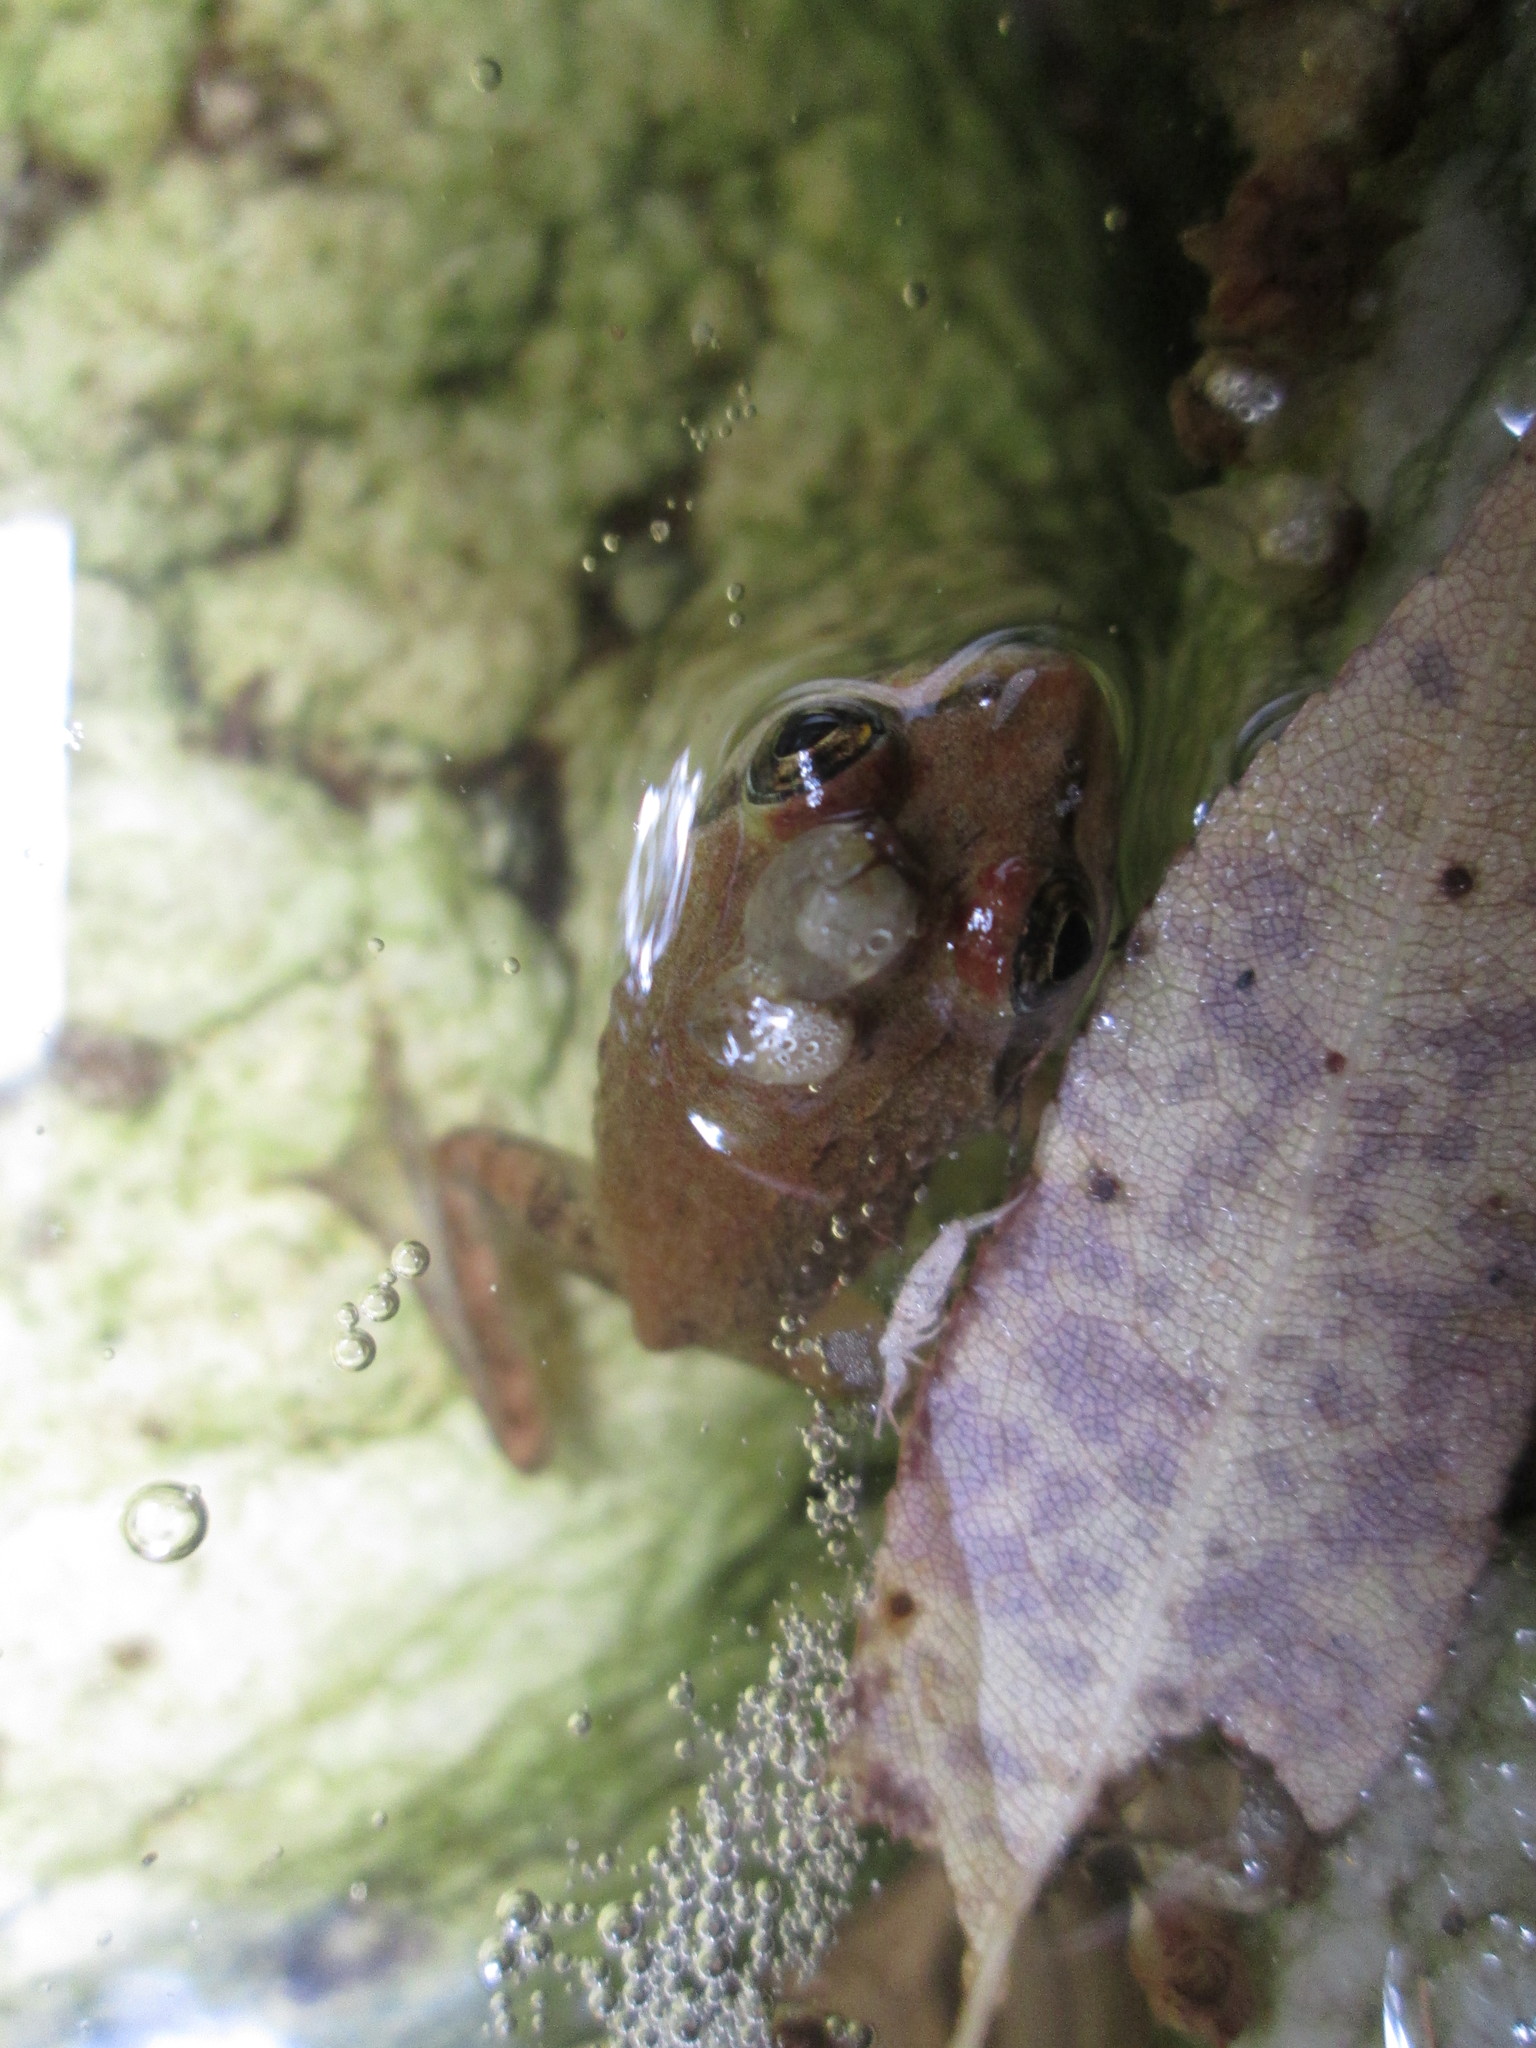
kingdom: Animalia
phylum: Chordata
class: Amphibia
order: Anura
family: Pyxicephalidae
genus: Amietia
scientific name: Amietia fuscigula
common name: Cape rana
